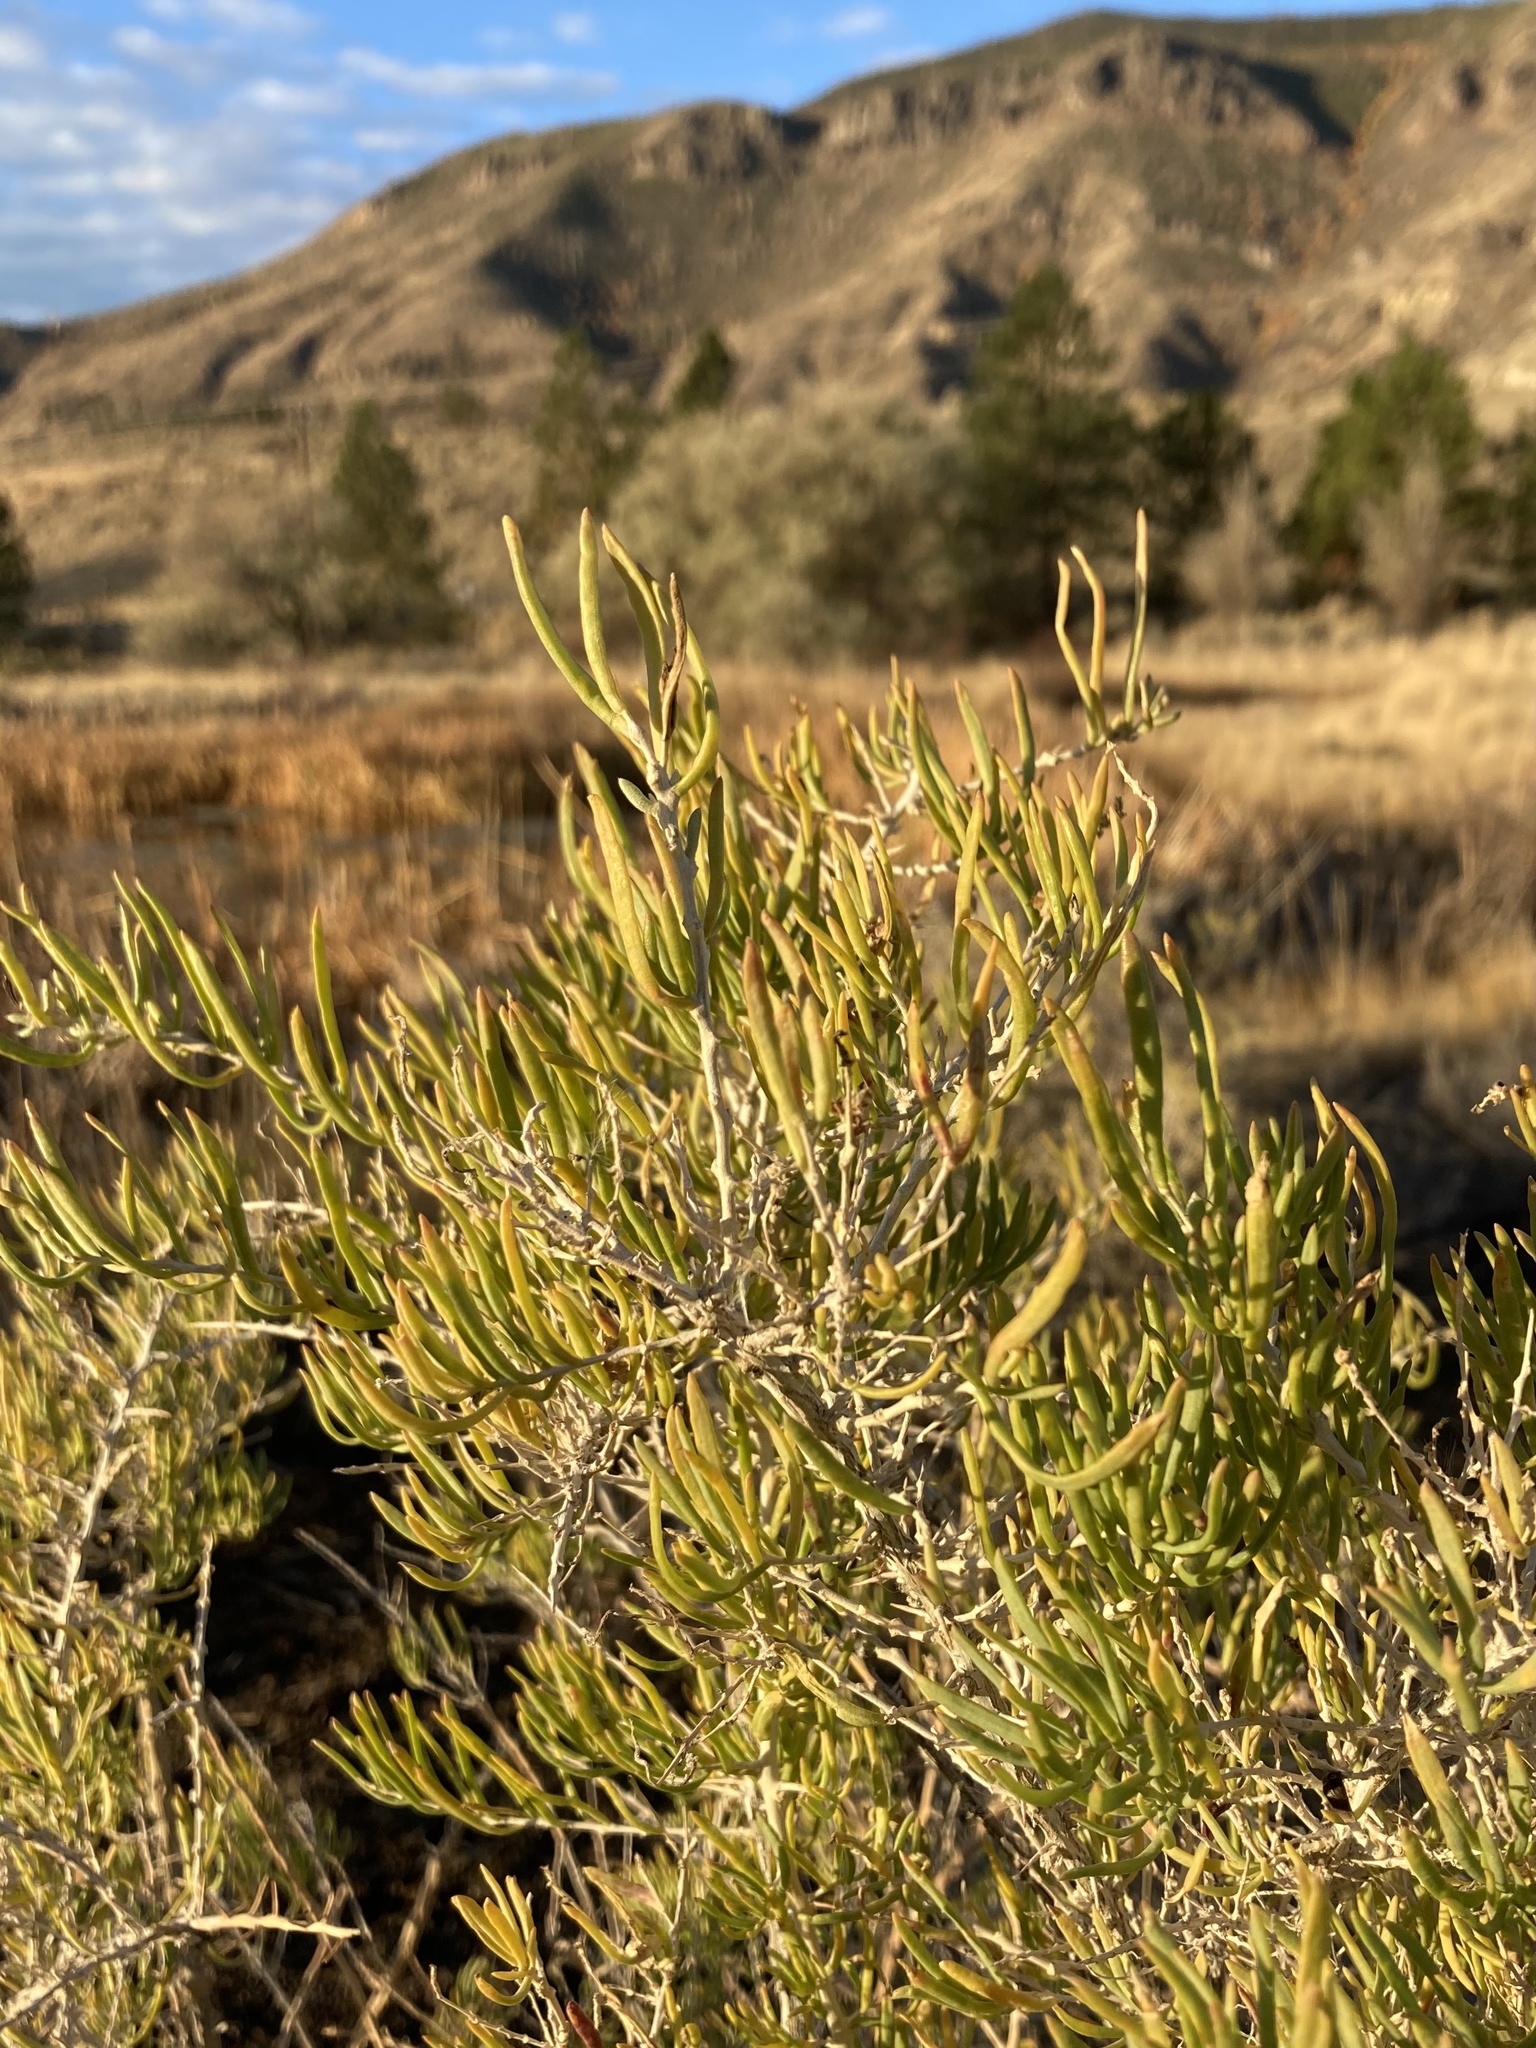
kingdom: Plantae
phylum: Tracheophyta
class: Magnoliopsida
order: Caryophyllales
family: Sarcobataceae
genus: Sarcobatus
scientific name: Sarcobatus vermiculatus
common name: Greasewood
